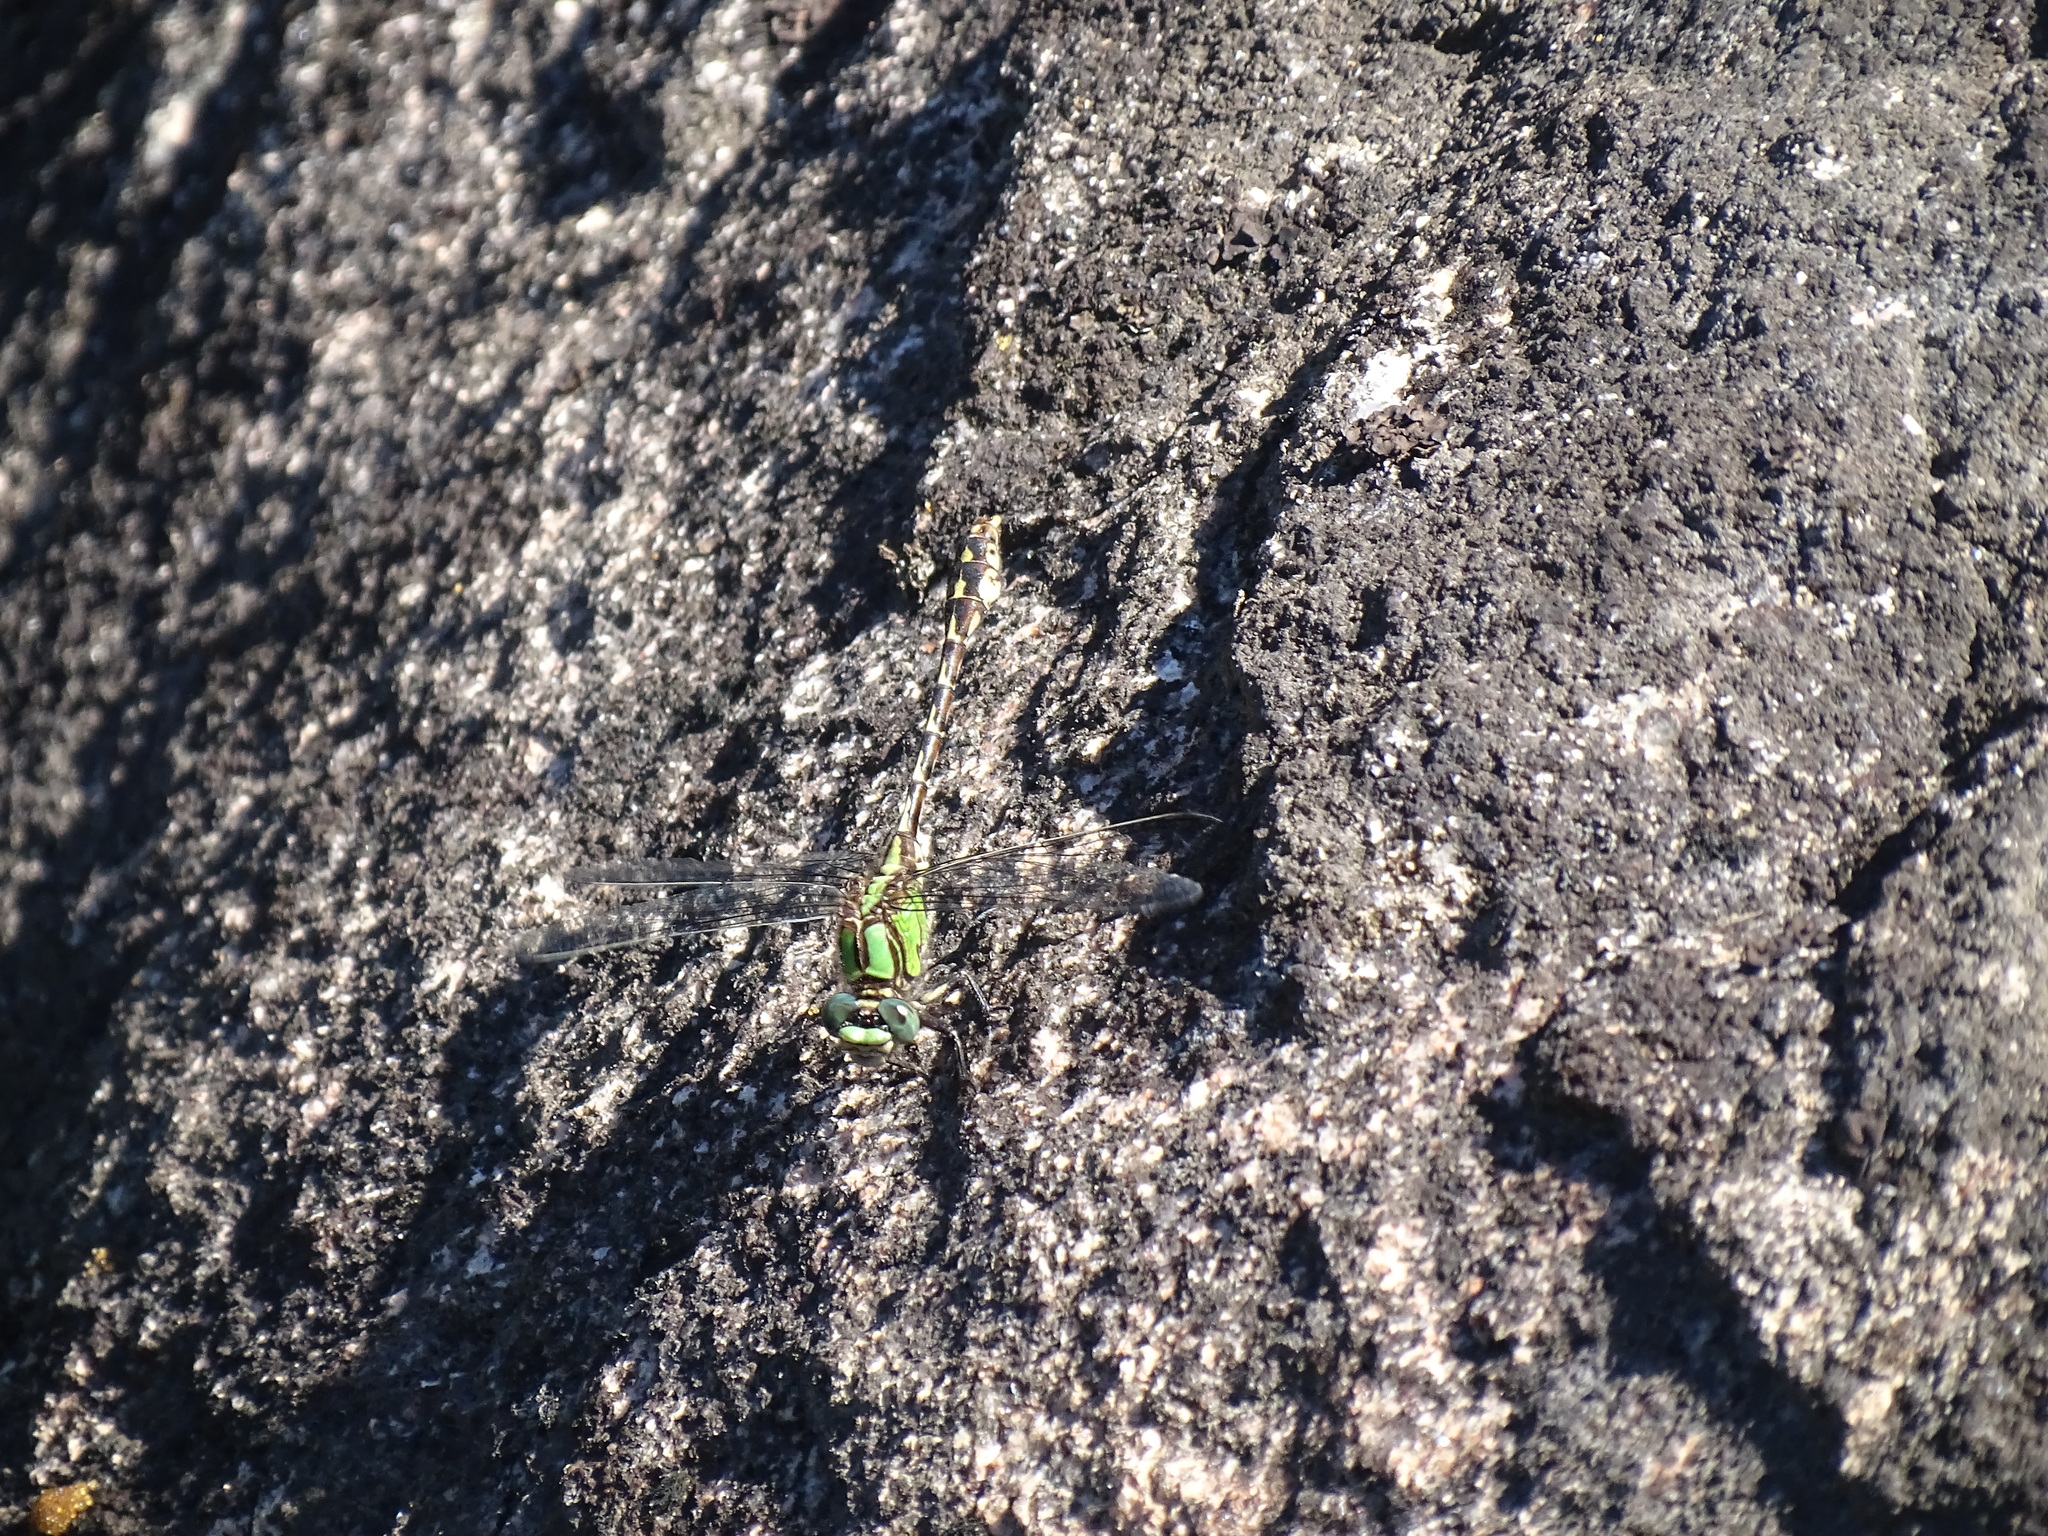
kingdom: Animalia
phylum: Arthropoda
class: Insecta
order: Odonata
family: Gomphidae
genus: Ophiogomphus
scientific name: Ophiogomphus colubrinus
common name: Boreal snaketail
